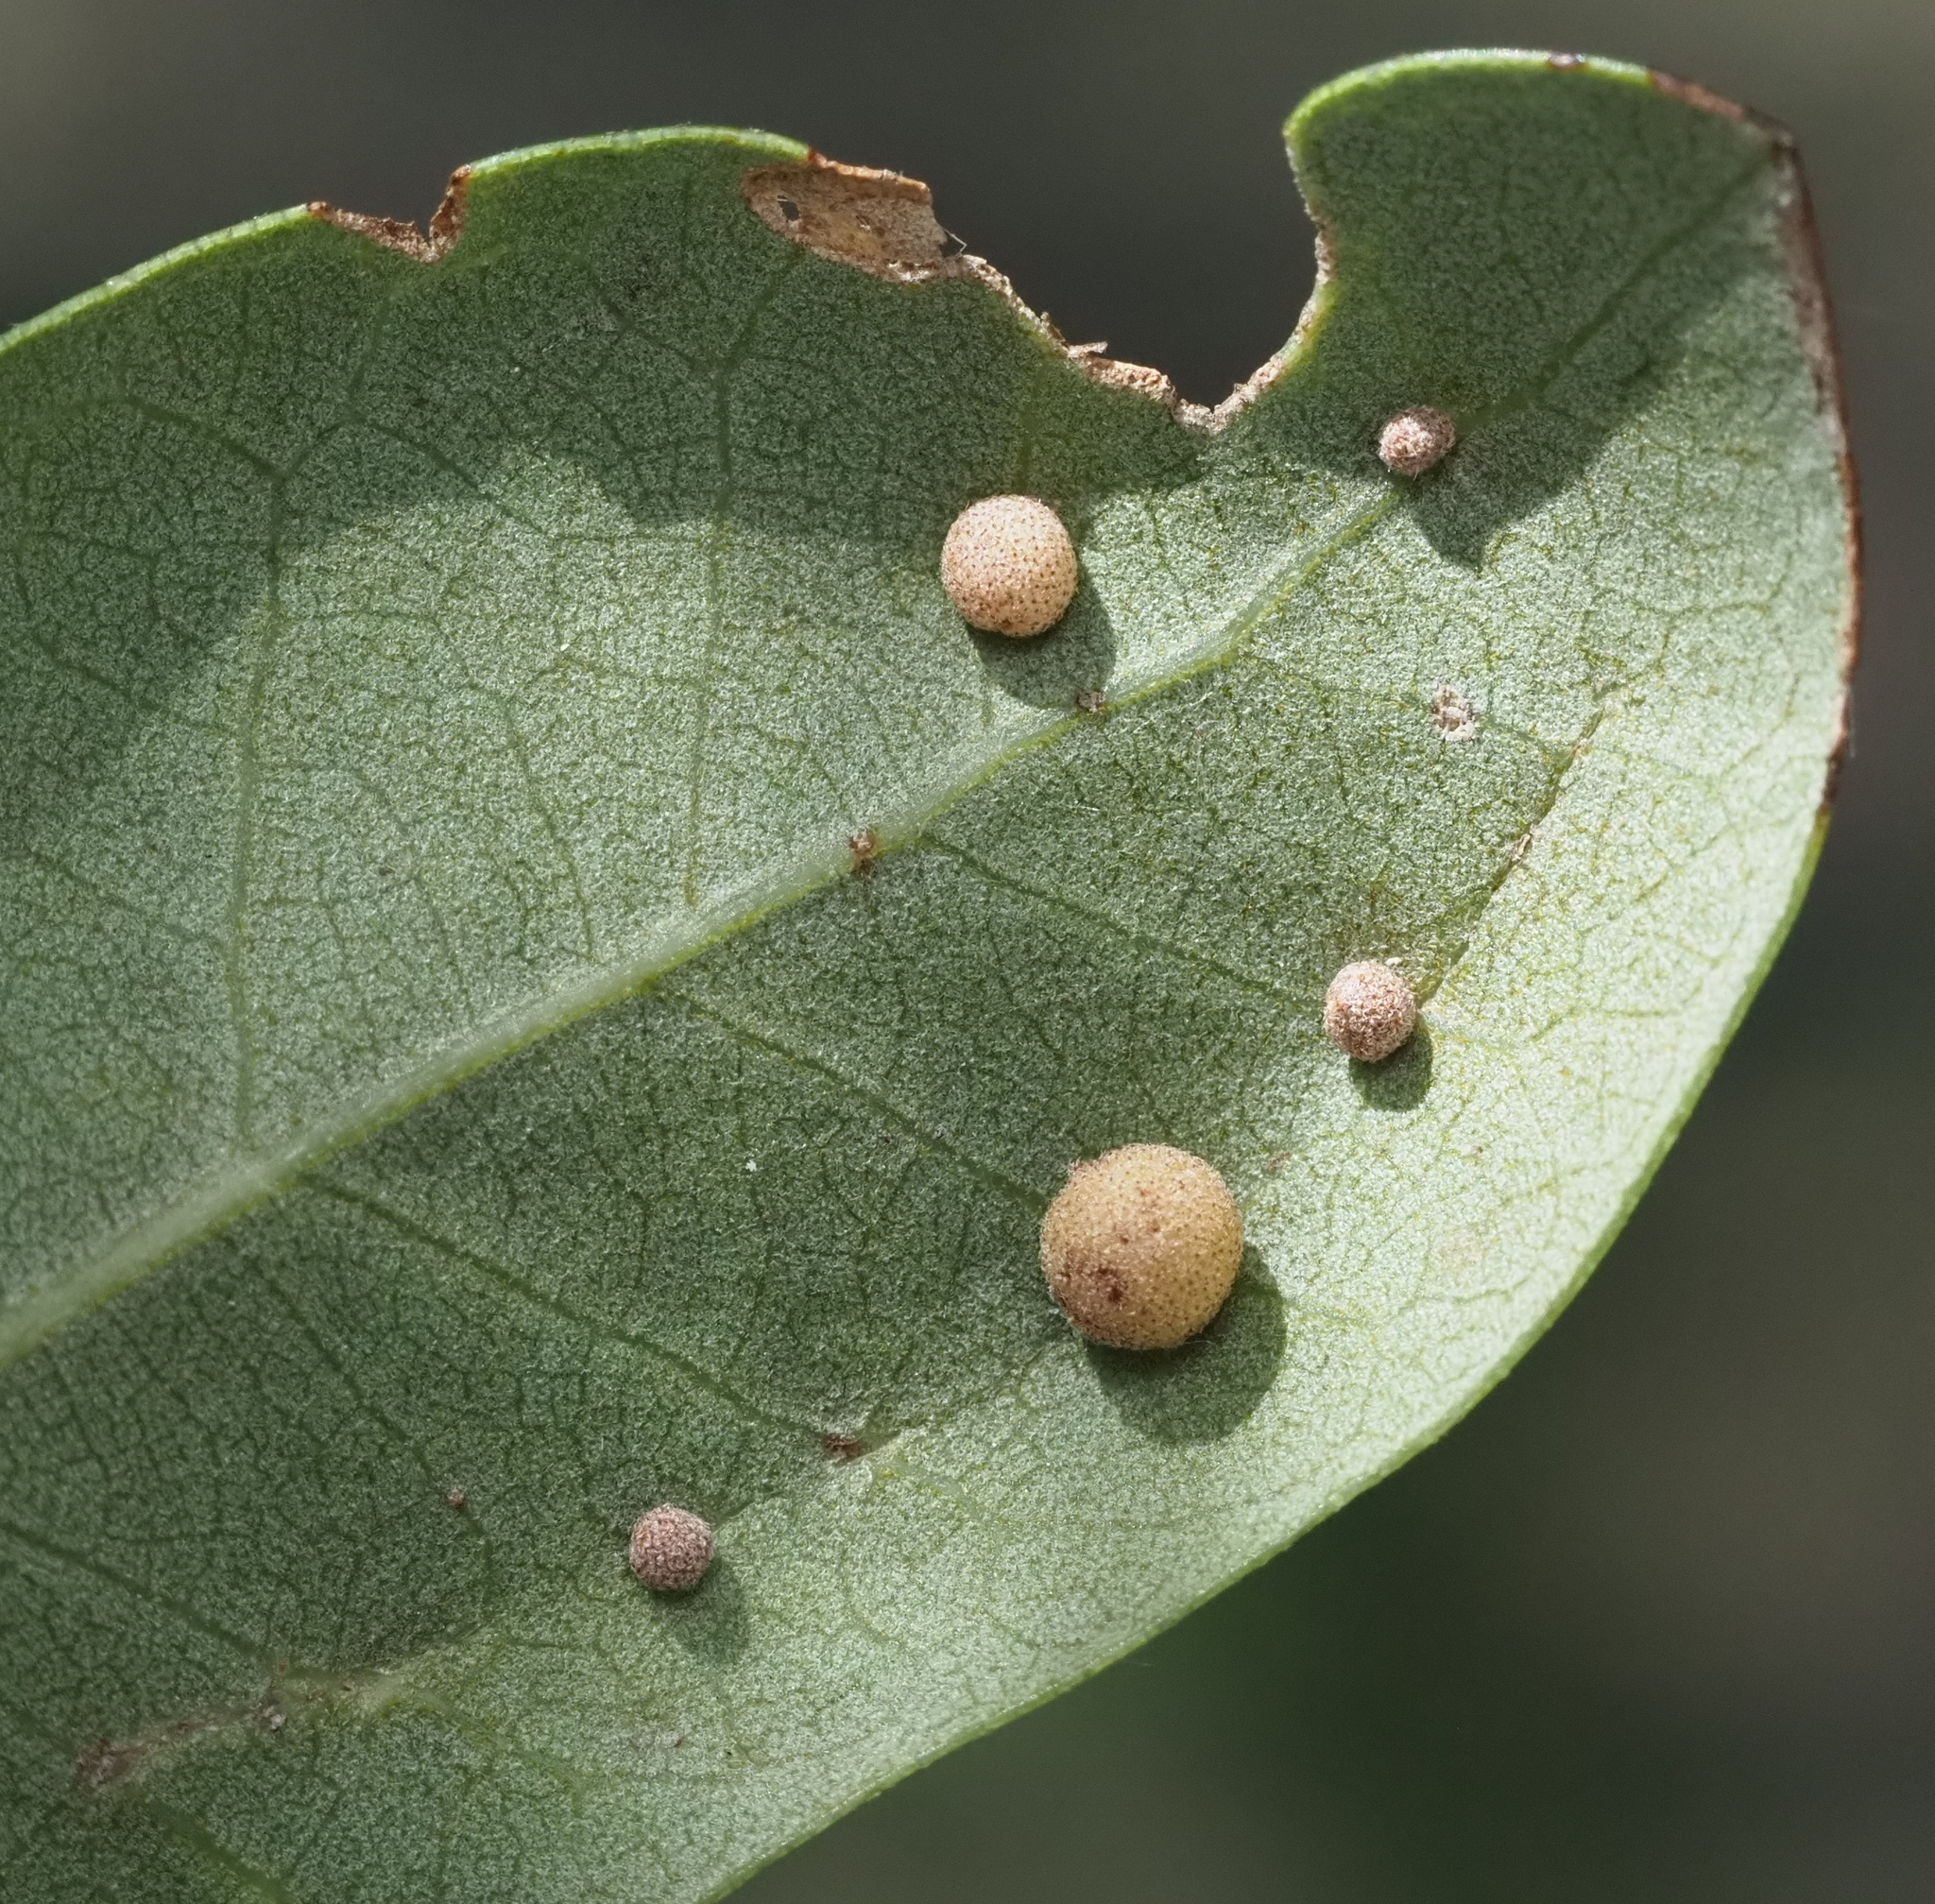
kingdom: Animalia
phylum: Arthropoda
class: Insecta
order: Hymenoptera
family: Cynipidae
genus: Belonocnema
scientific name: Belonocnema kinseyi
